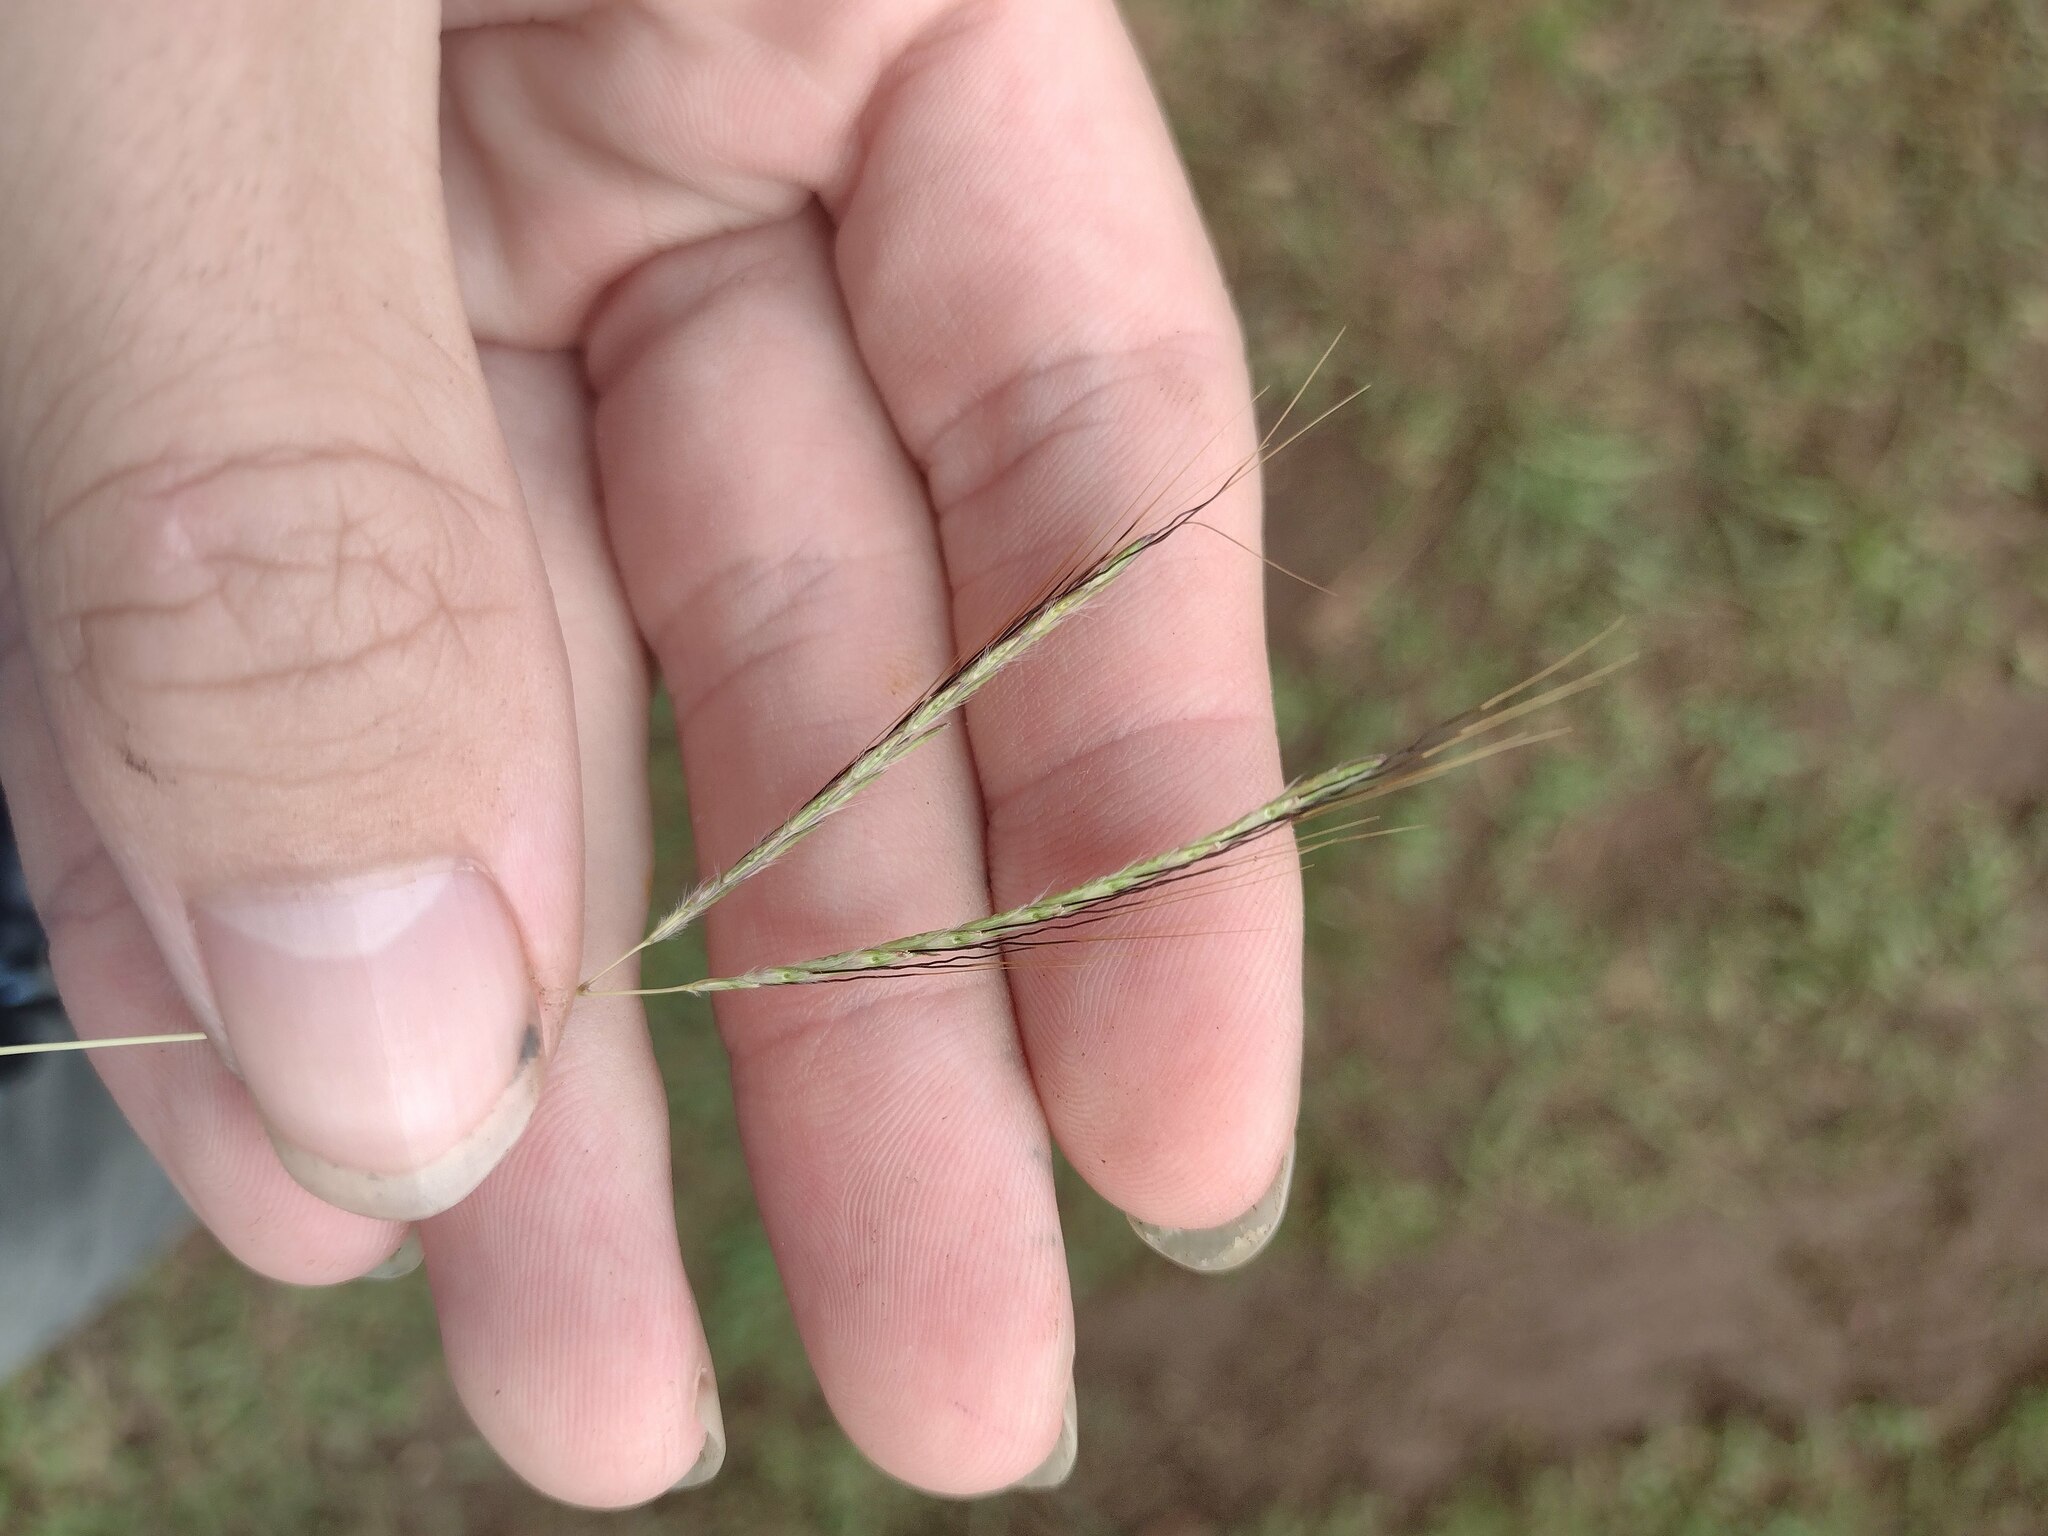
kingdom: Plantae
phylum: Tracheophyta
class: Liliopsida
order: Poales
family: Poaceae
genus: Bothriochloa
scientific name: Bothriochloa pertusa
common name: Pitted beardgrass
